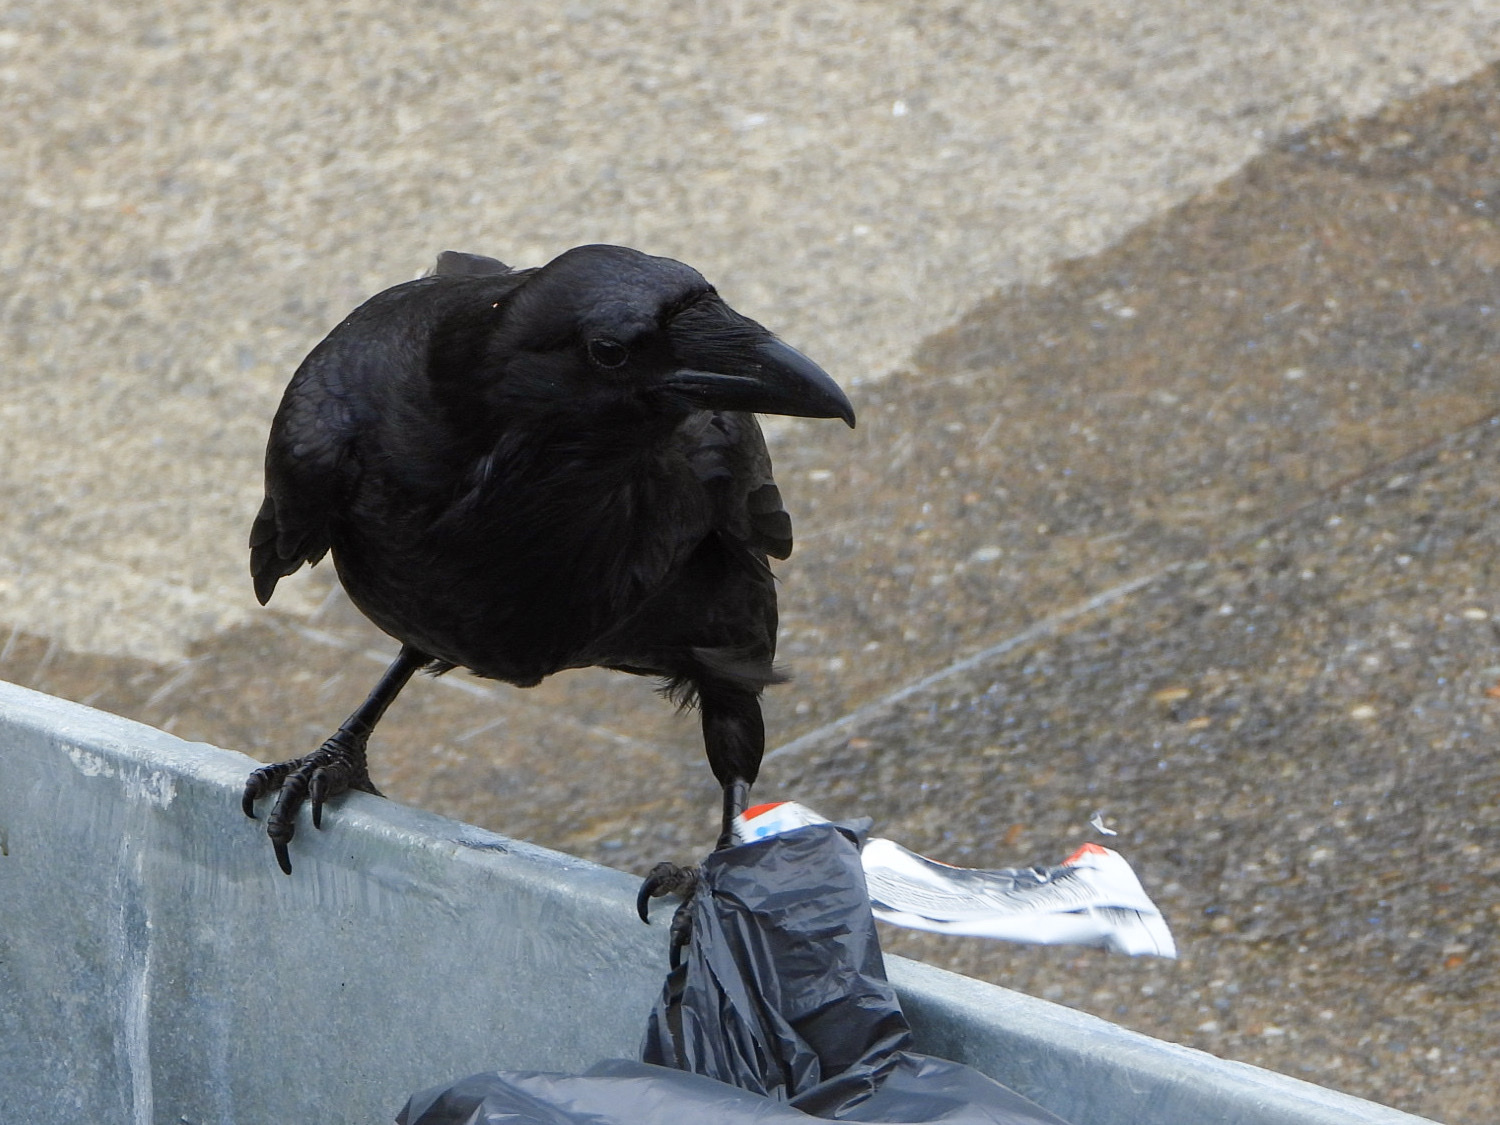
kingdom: Animalia
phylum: Chordata
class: Aves
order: Passeriformes
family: Corvidae
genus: Corvus
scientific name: Corvus corax
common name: Common raven
